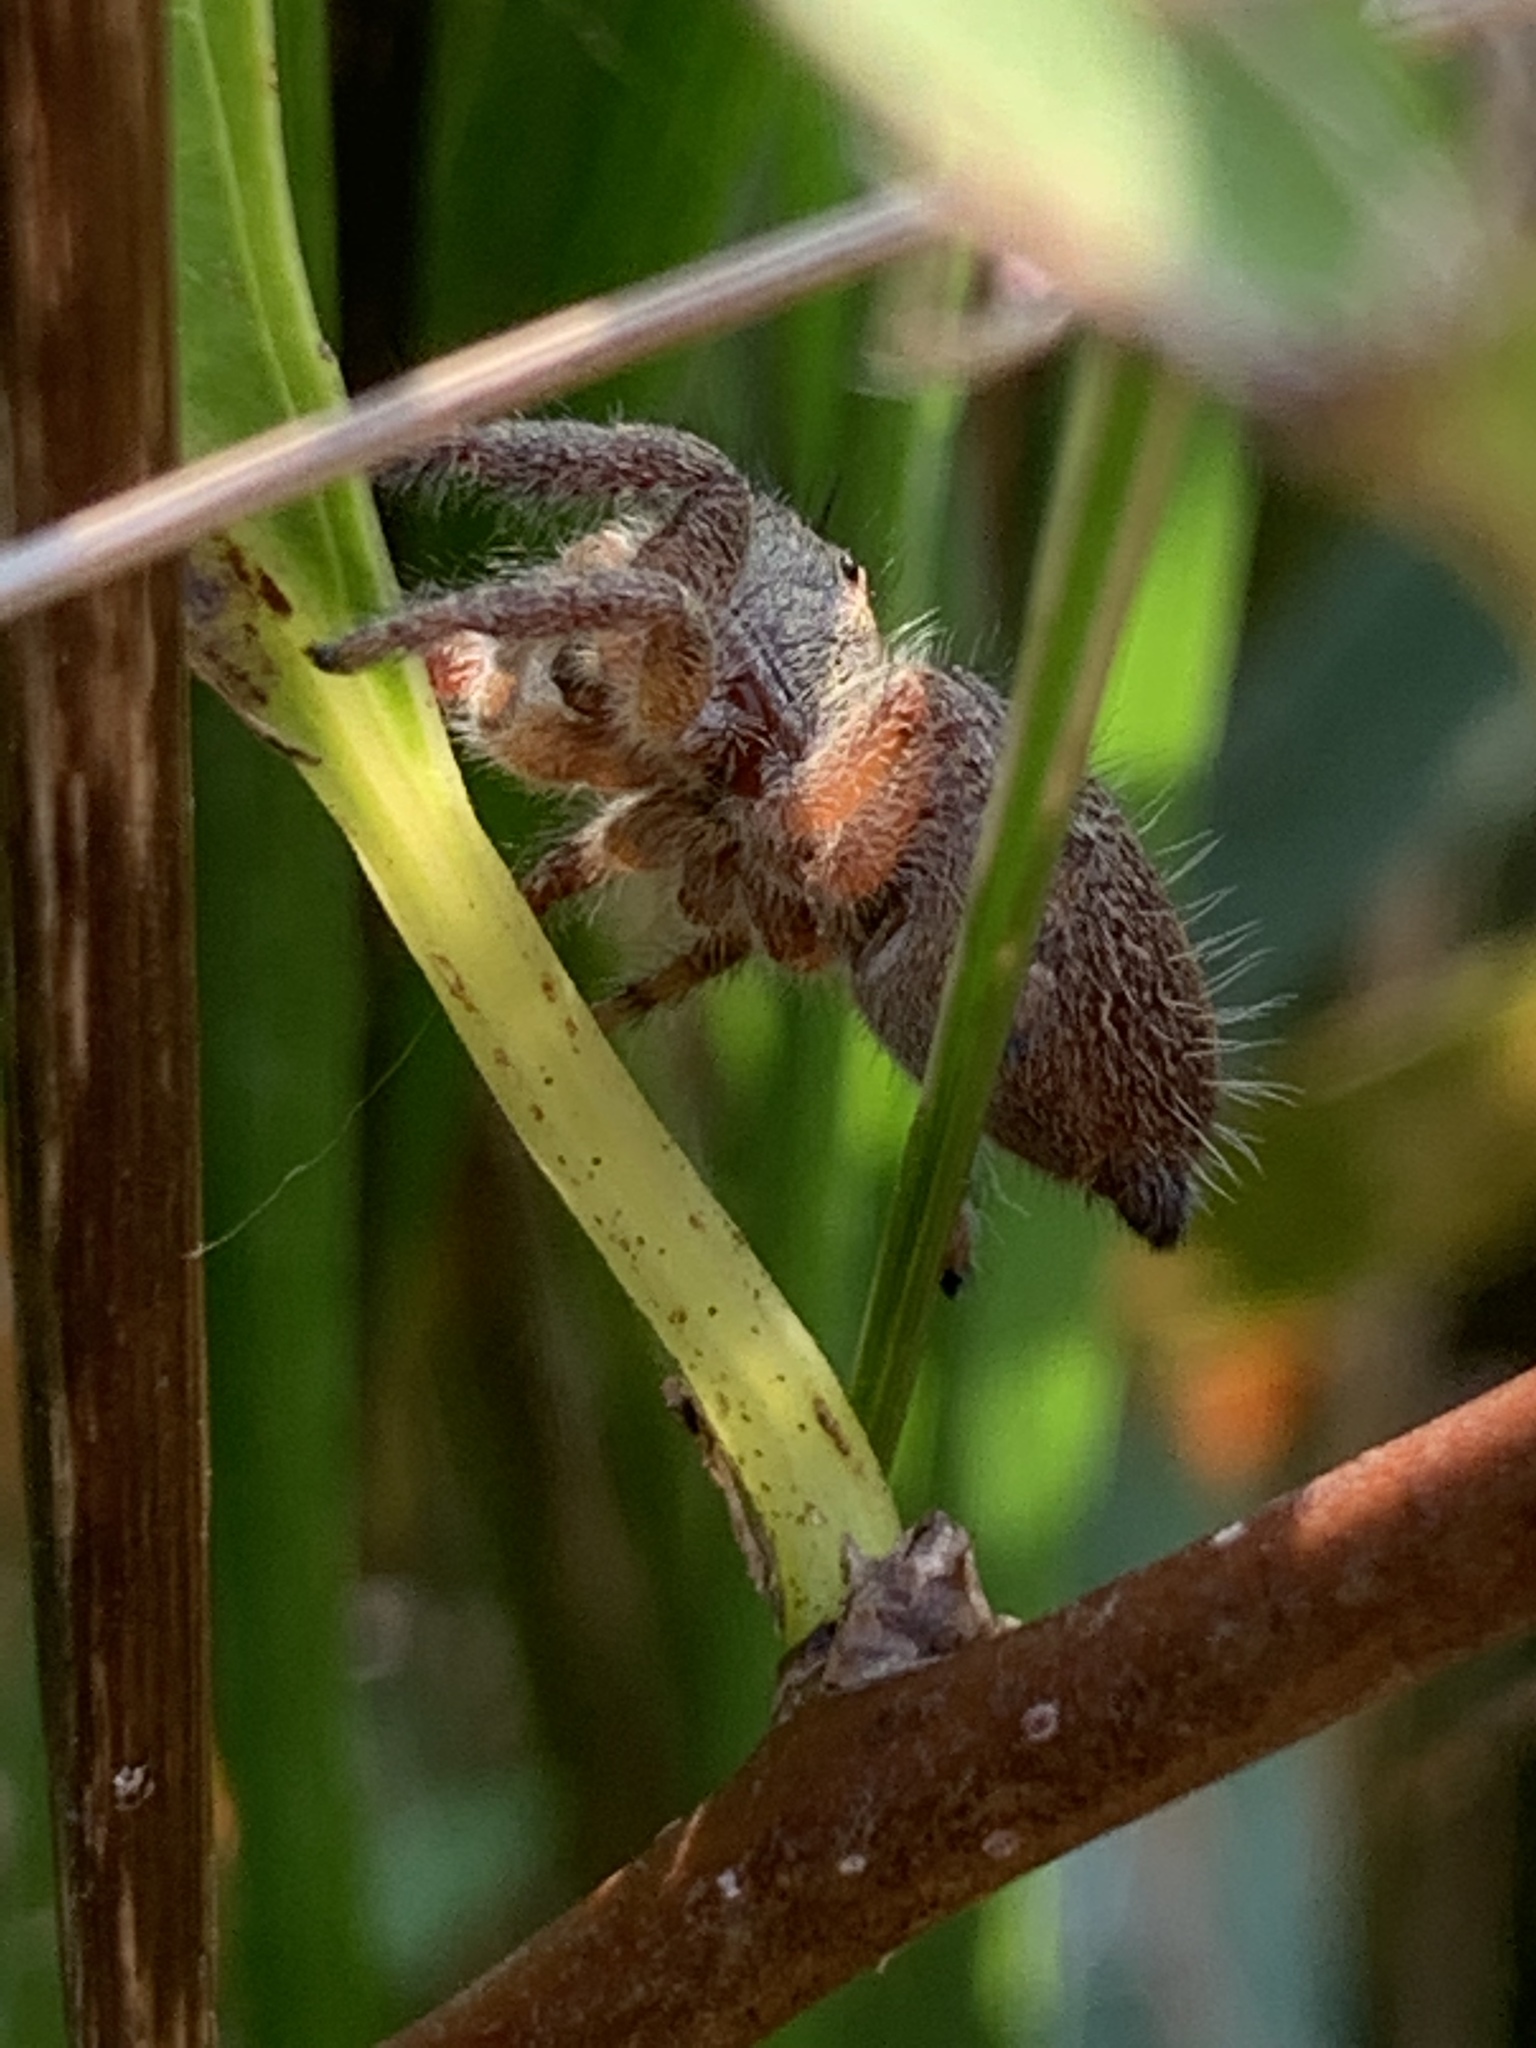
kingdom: Animalia
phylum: Arthropoda
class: Arachnida
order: Araneae
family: Salticidae
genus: Phidippus
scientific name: Phidippus princeps
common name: Grayish jumping spider
